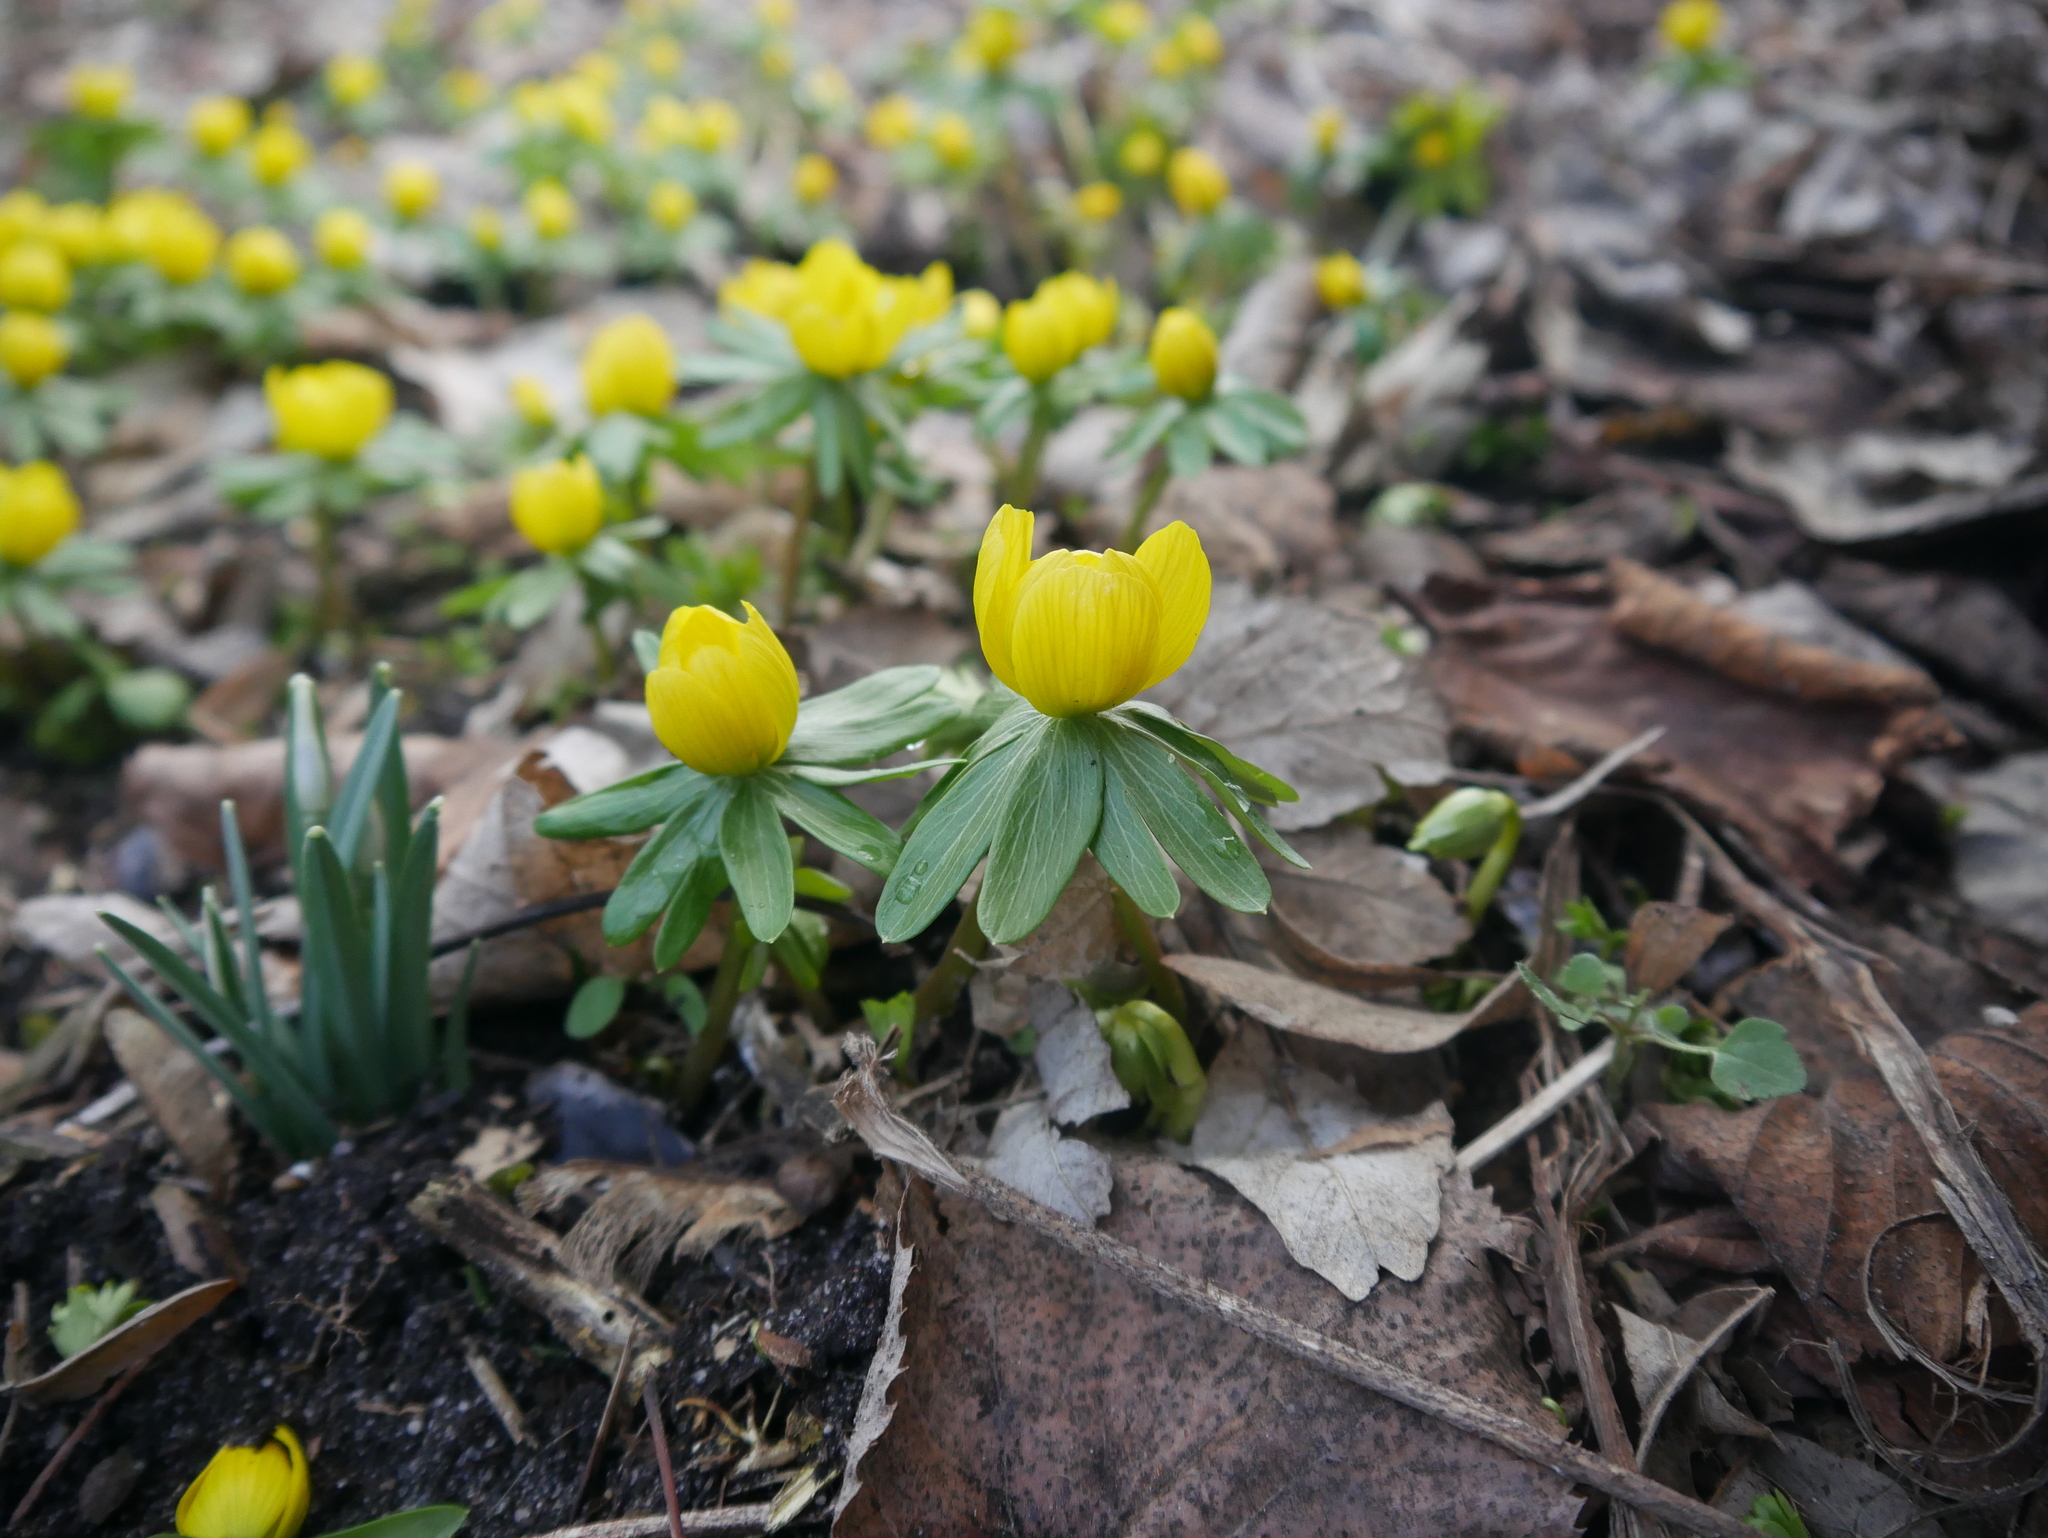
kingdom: Plantae
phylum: Tracheophyta
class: Magnoliopsida
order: Ranunculales
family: Ranunculaceae
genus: Eranthis
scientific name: Eranthis hyemalis
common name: Winter aconite
